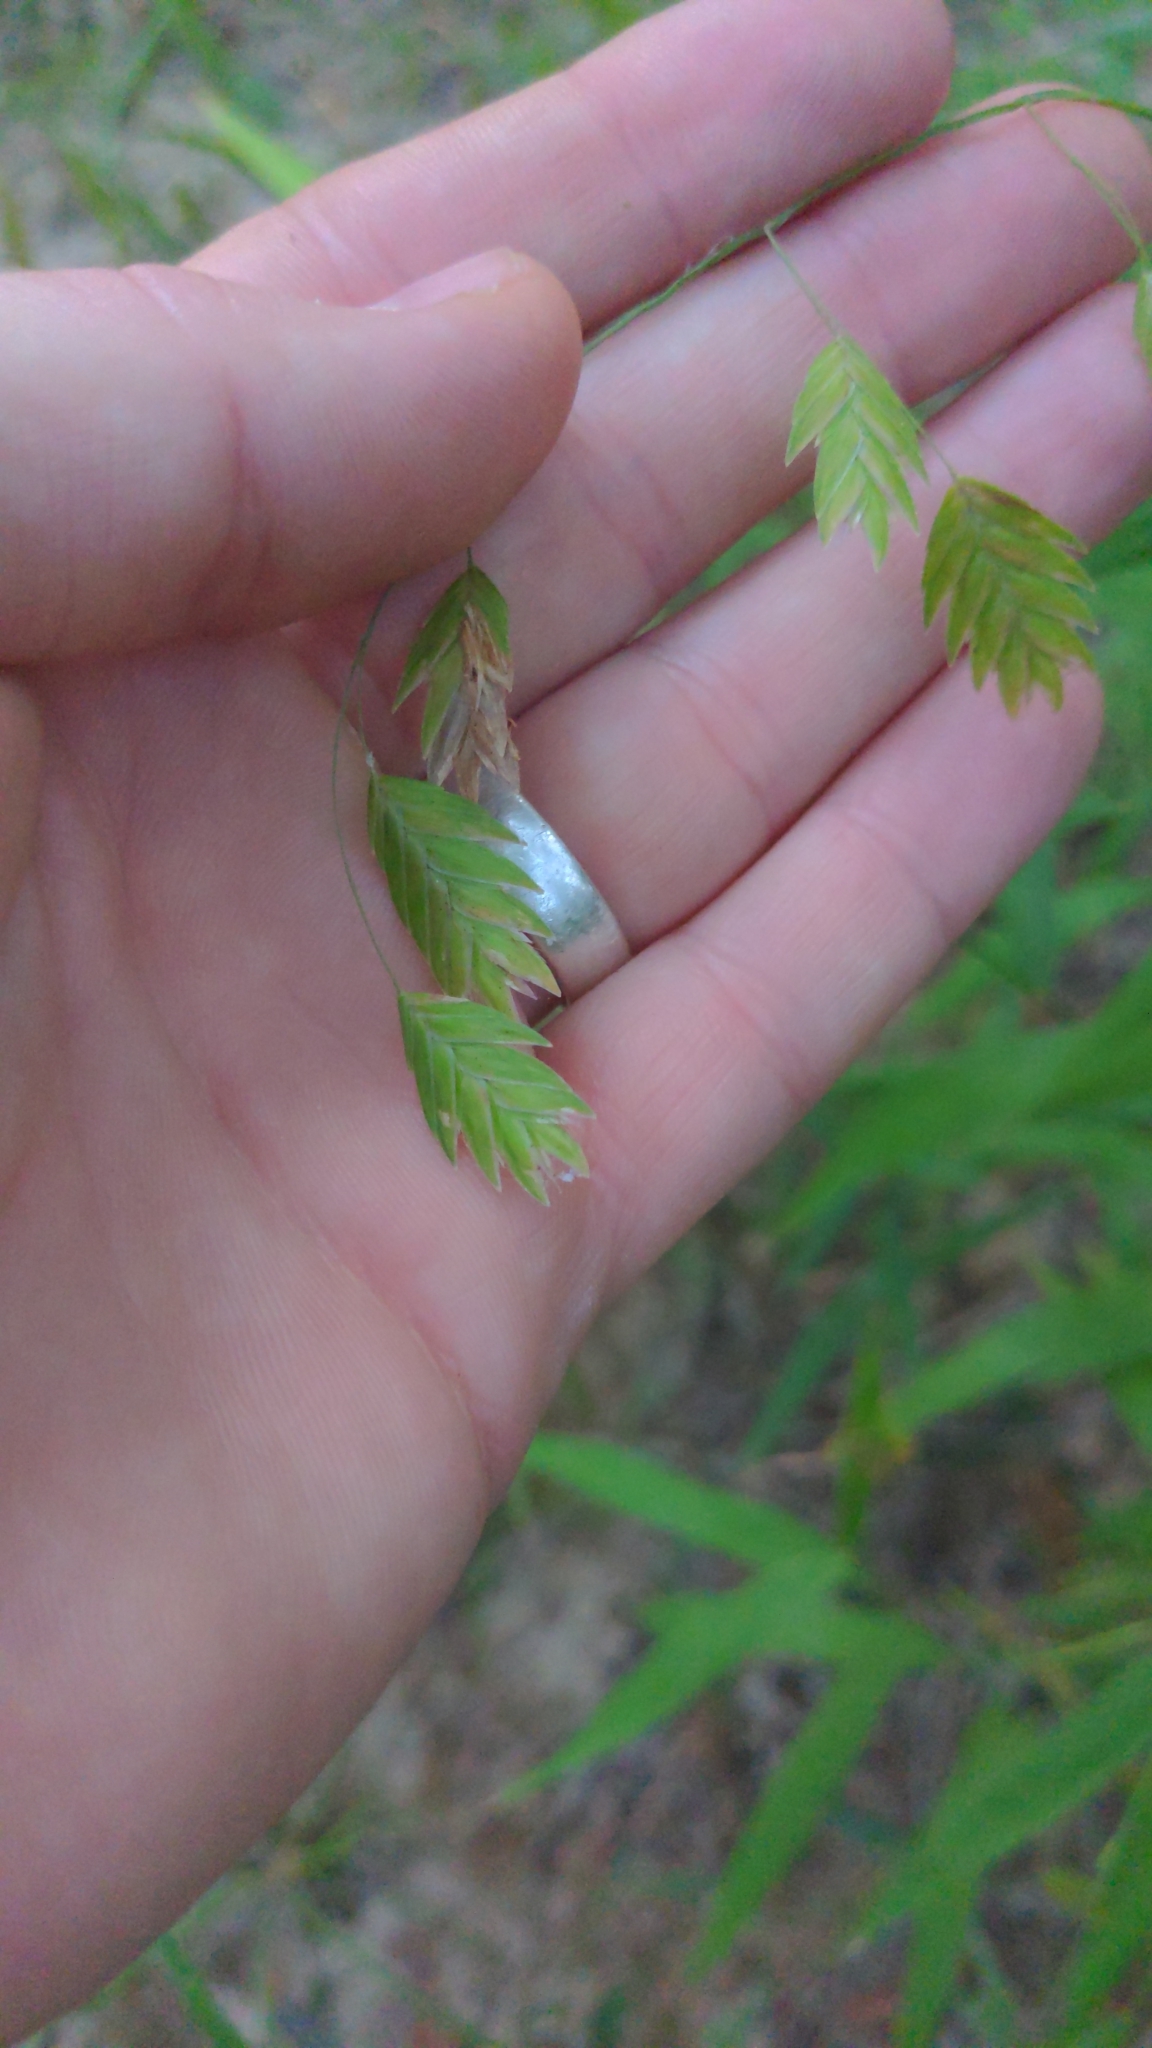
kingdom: Plantae
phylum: Tracheophyta
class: Liliopsida
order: Poales
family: Poaceae
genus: Chasmanthium
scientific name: Chasmanthium latifolium
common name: Broad-leaved chasmanthium
